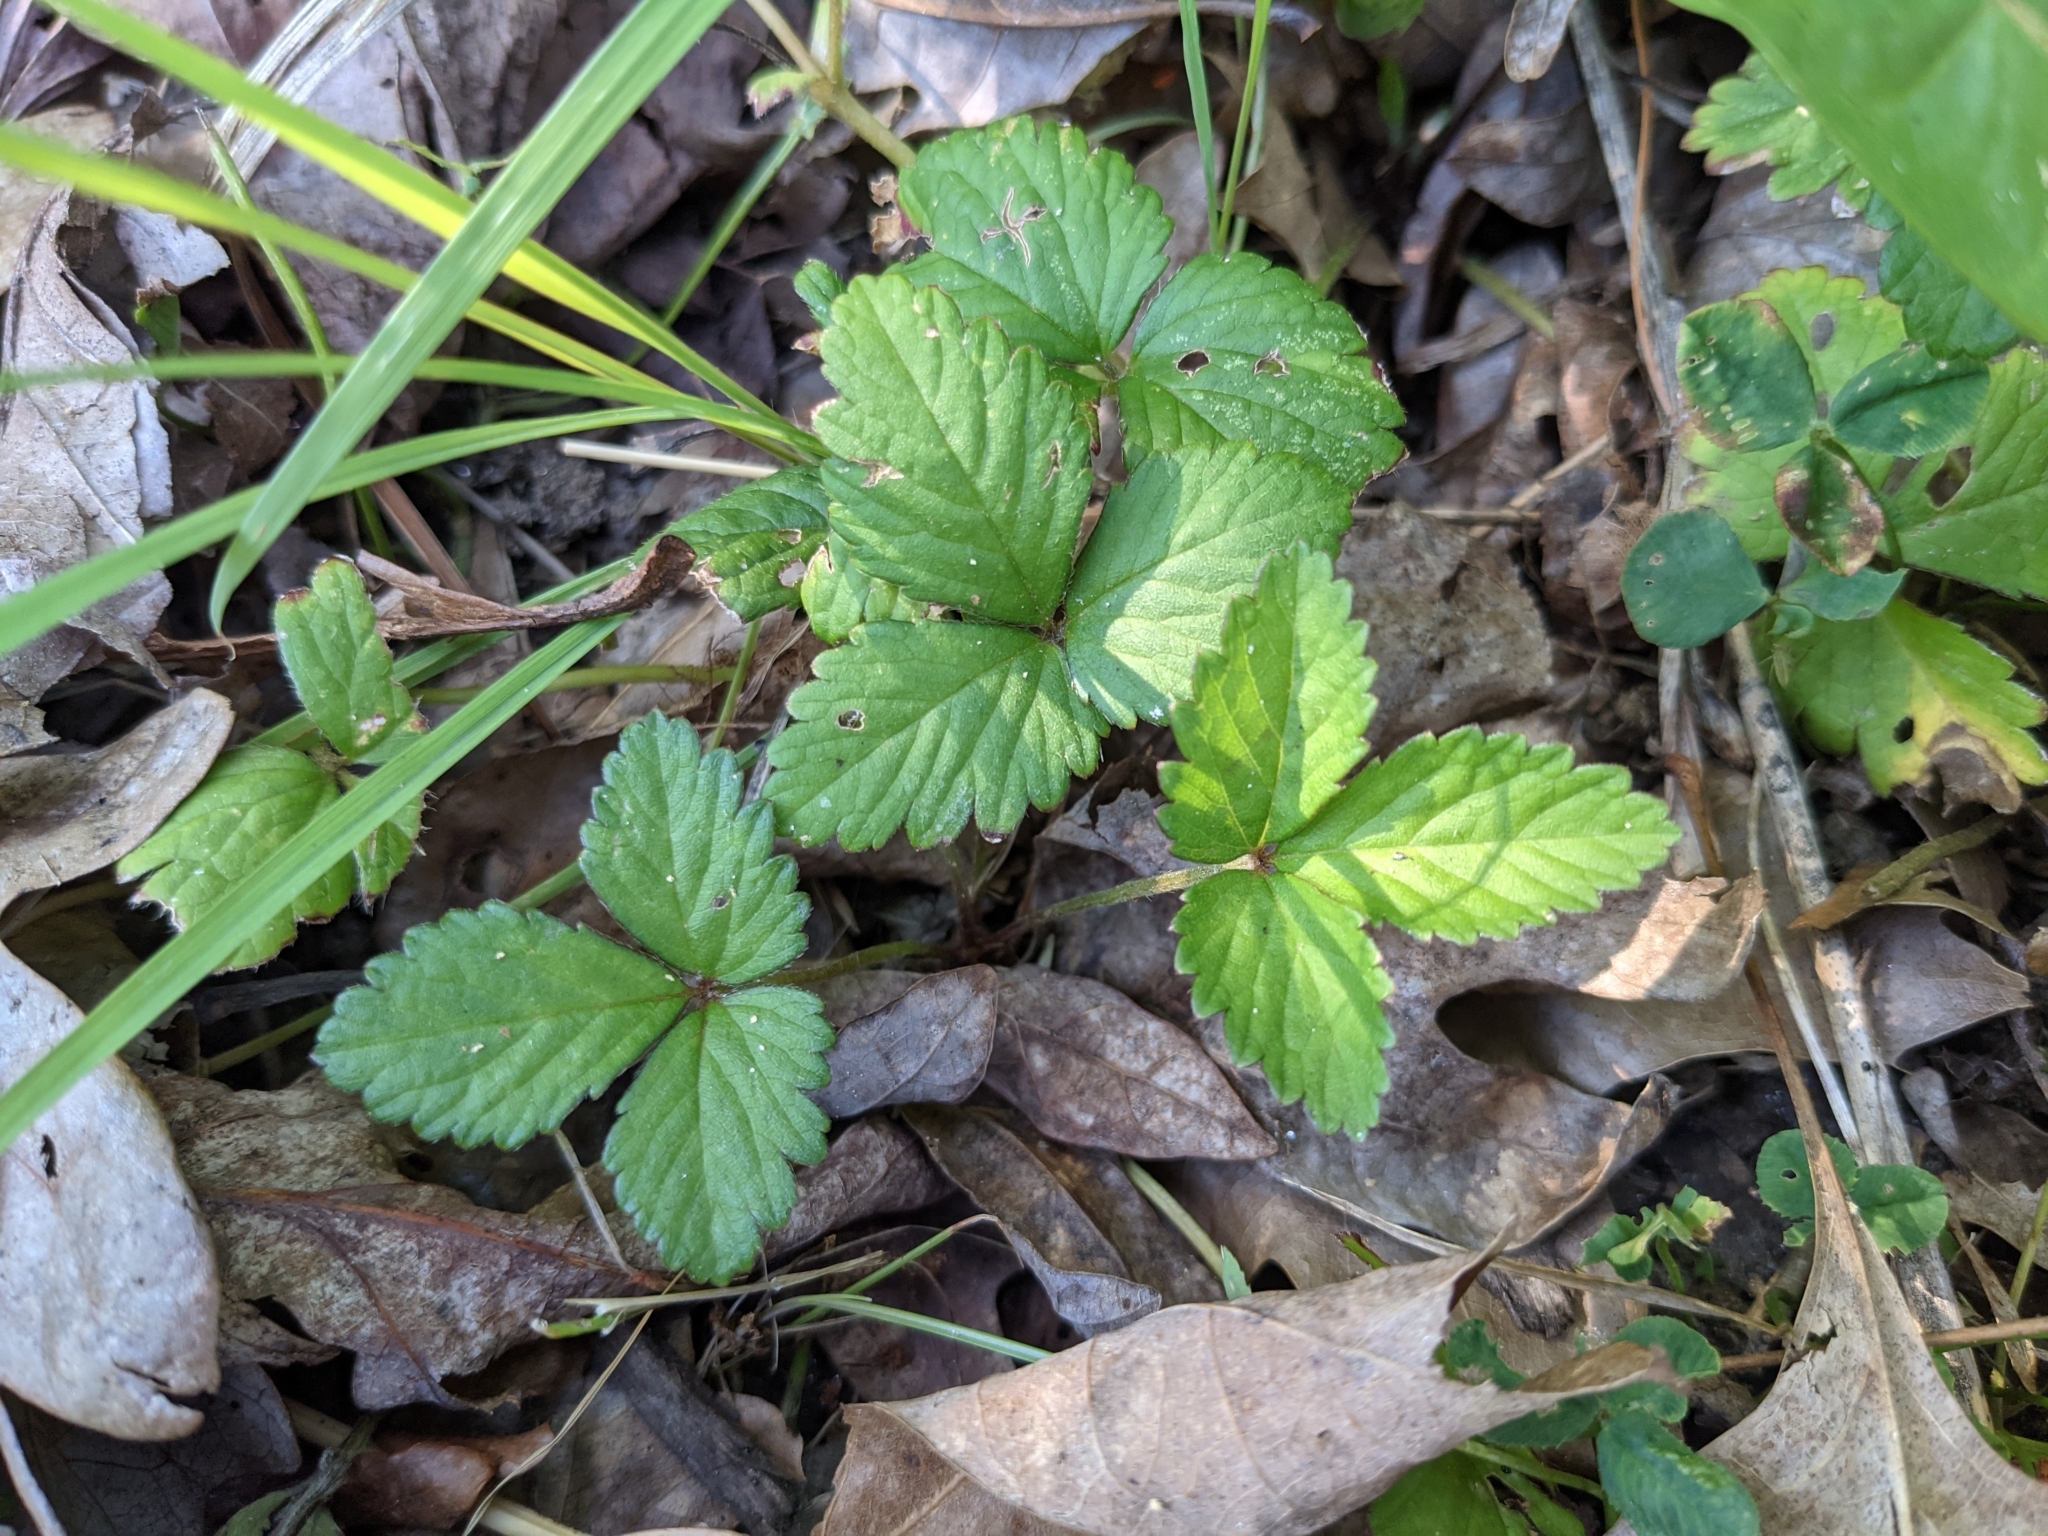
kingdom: Plantae
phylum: Tracheophyta
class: Magnoliopsida
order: Rosales
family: Rosaceae
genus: Potentilla
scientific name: Potentilla indica
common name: Yellow-flowered strawberry
